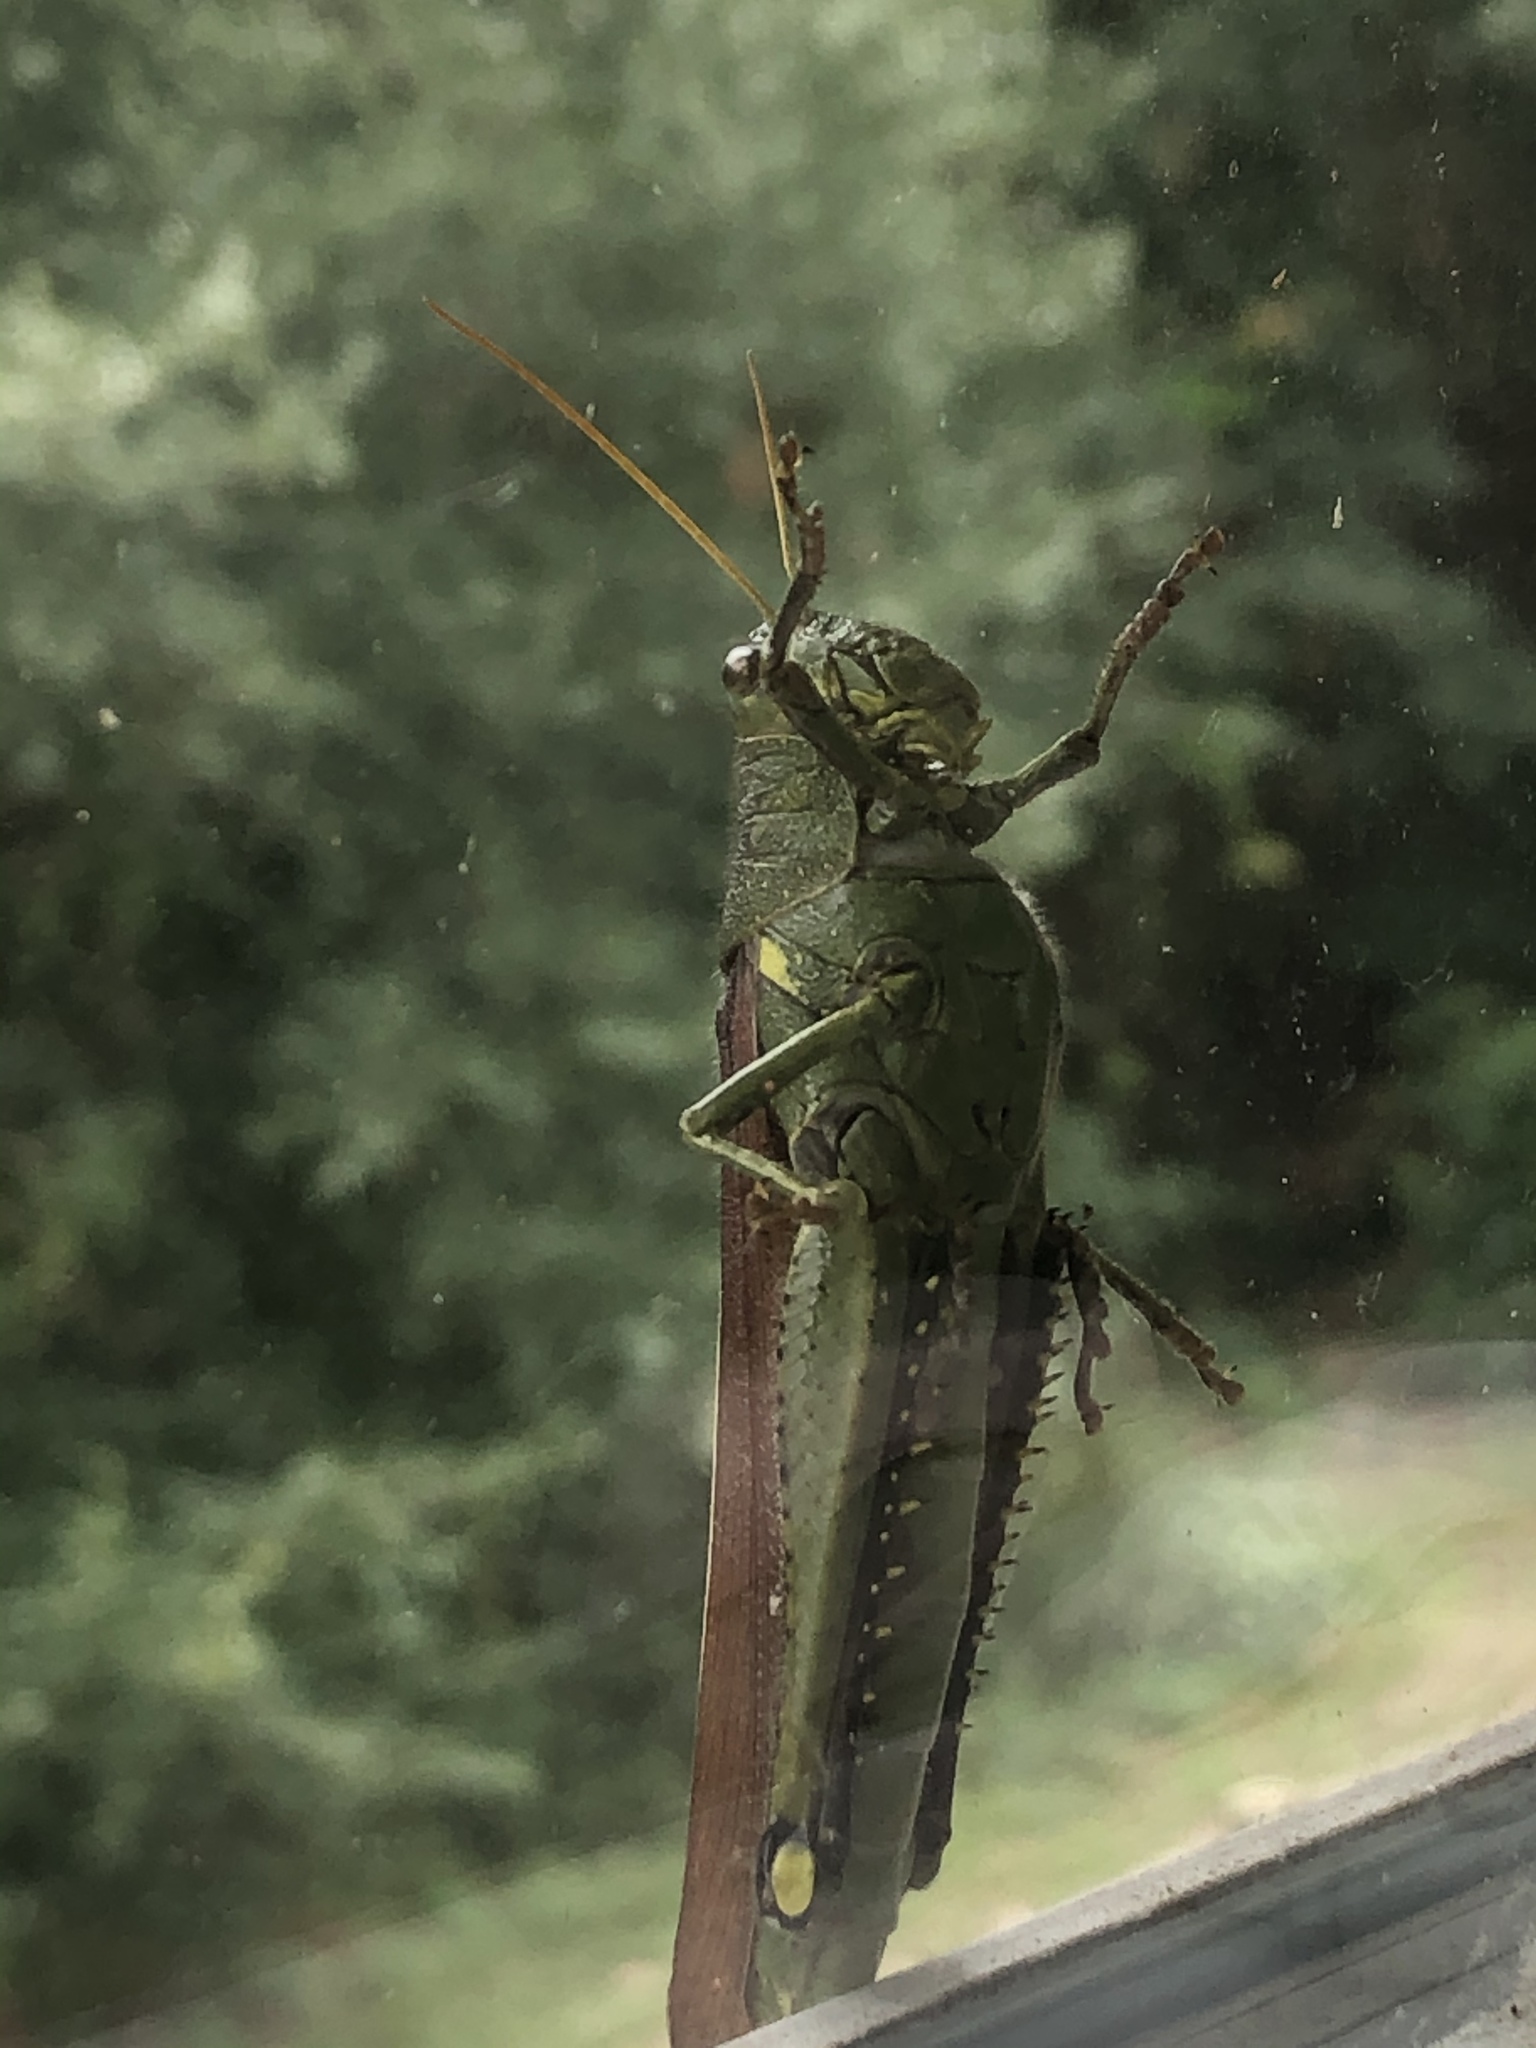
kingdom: Animalia
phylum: Arthropoda
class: Insecta
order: Orthoptera
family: Acrididae
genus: Schistocerca
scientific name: Schistocerca obscura
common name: Obscure bird grasshopper
